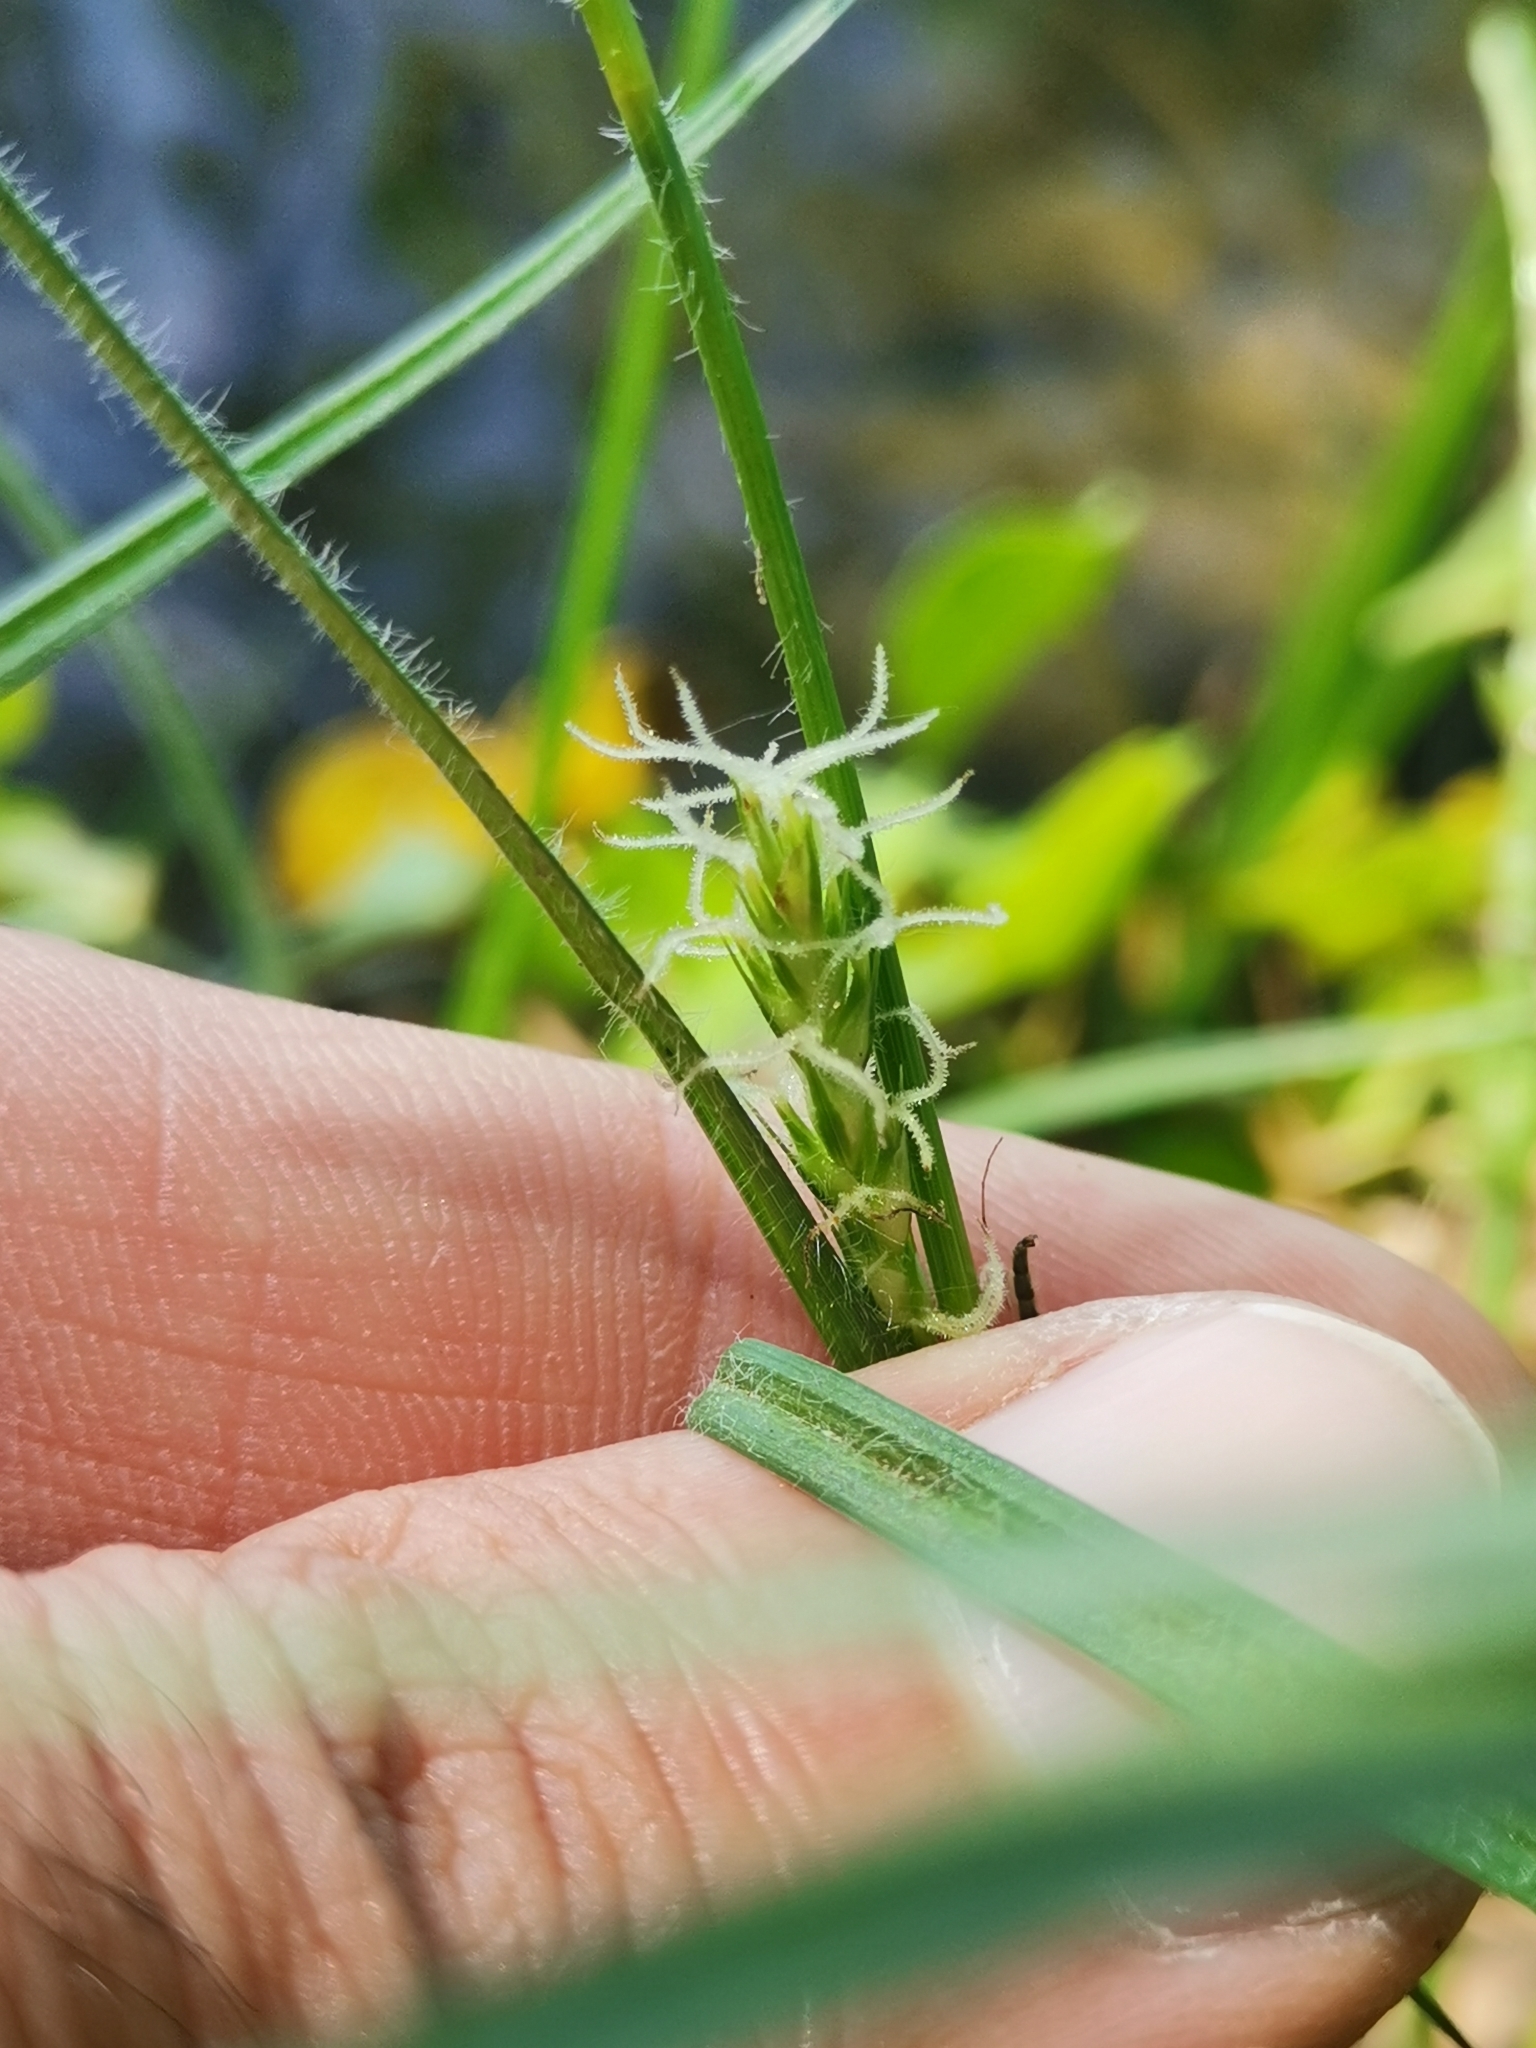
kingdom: Plantae
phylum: Tracheophyta
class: Liliopsida
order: Poales
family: Cyperaceae
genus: Carex
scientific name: Carex hirta
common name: Hairy sedge
